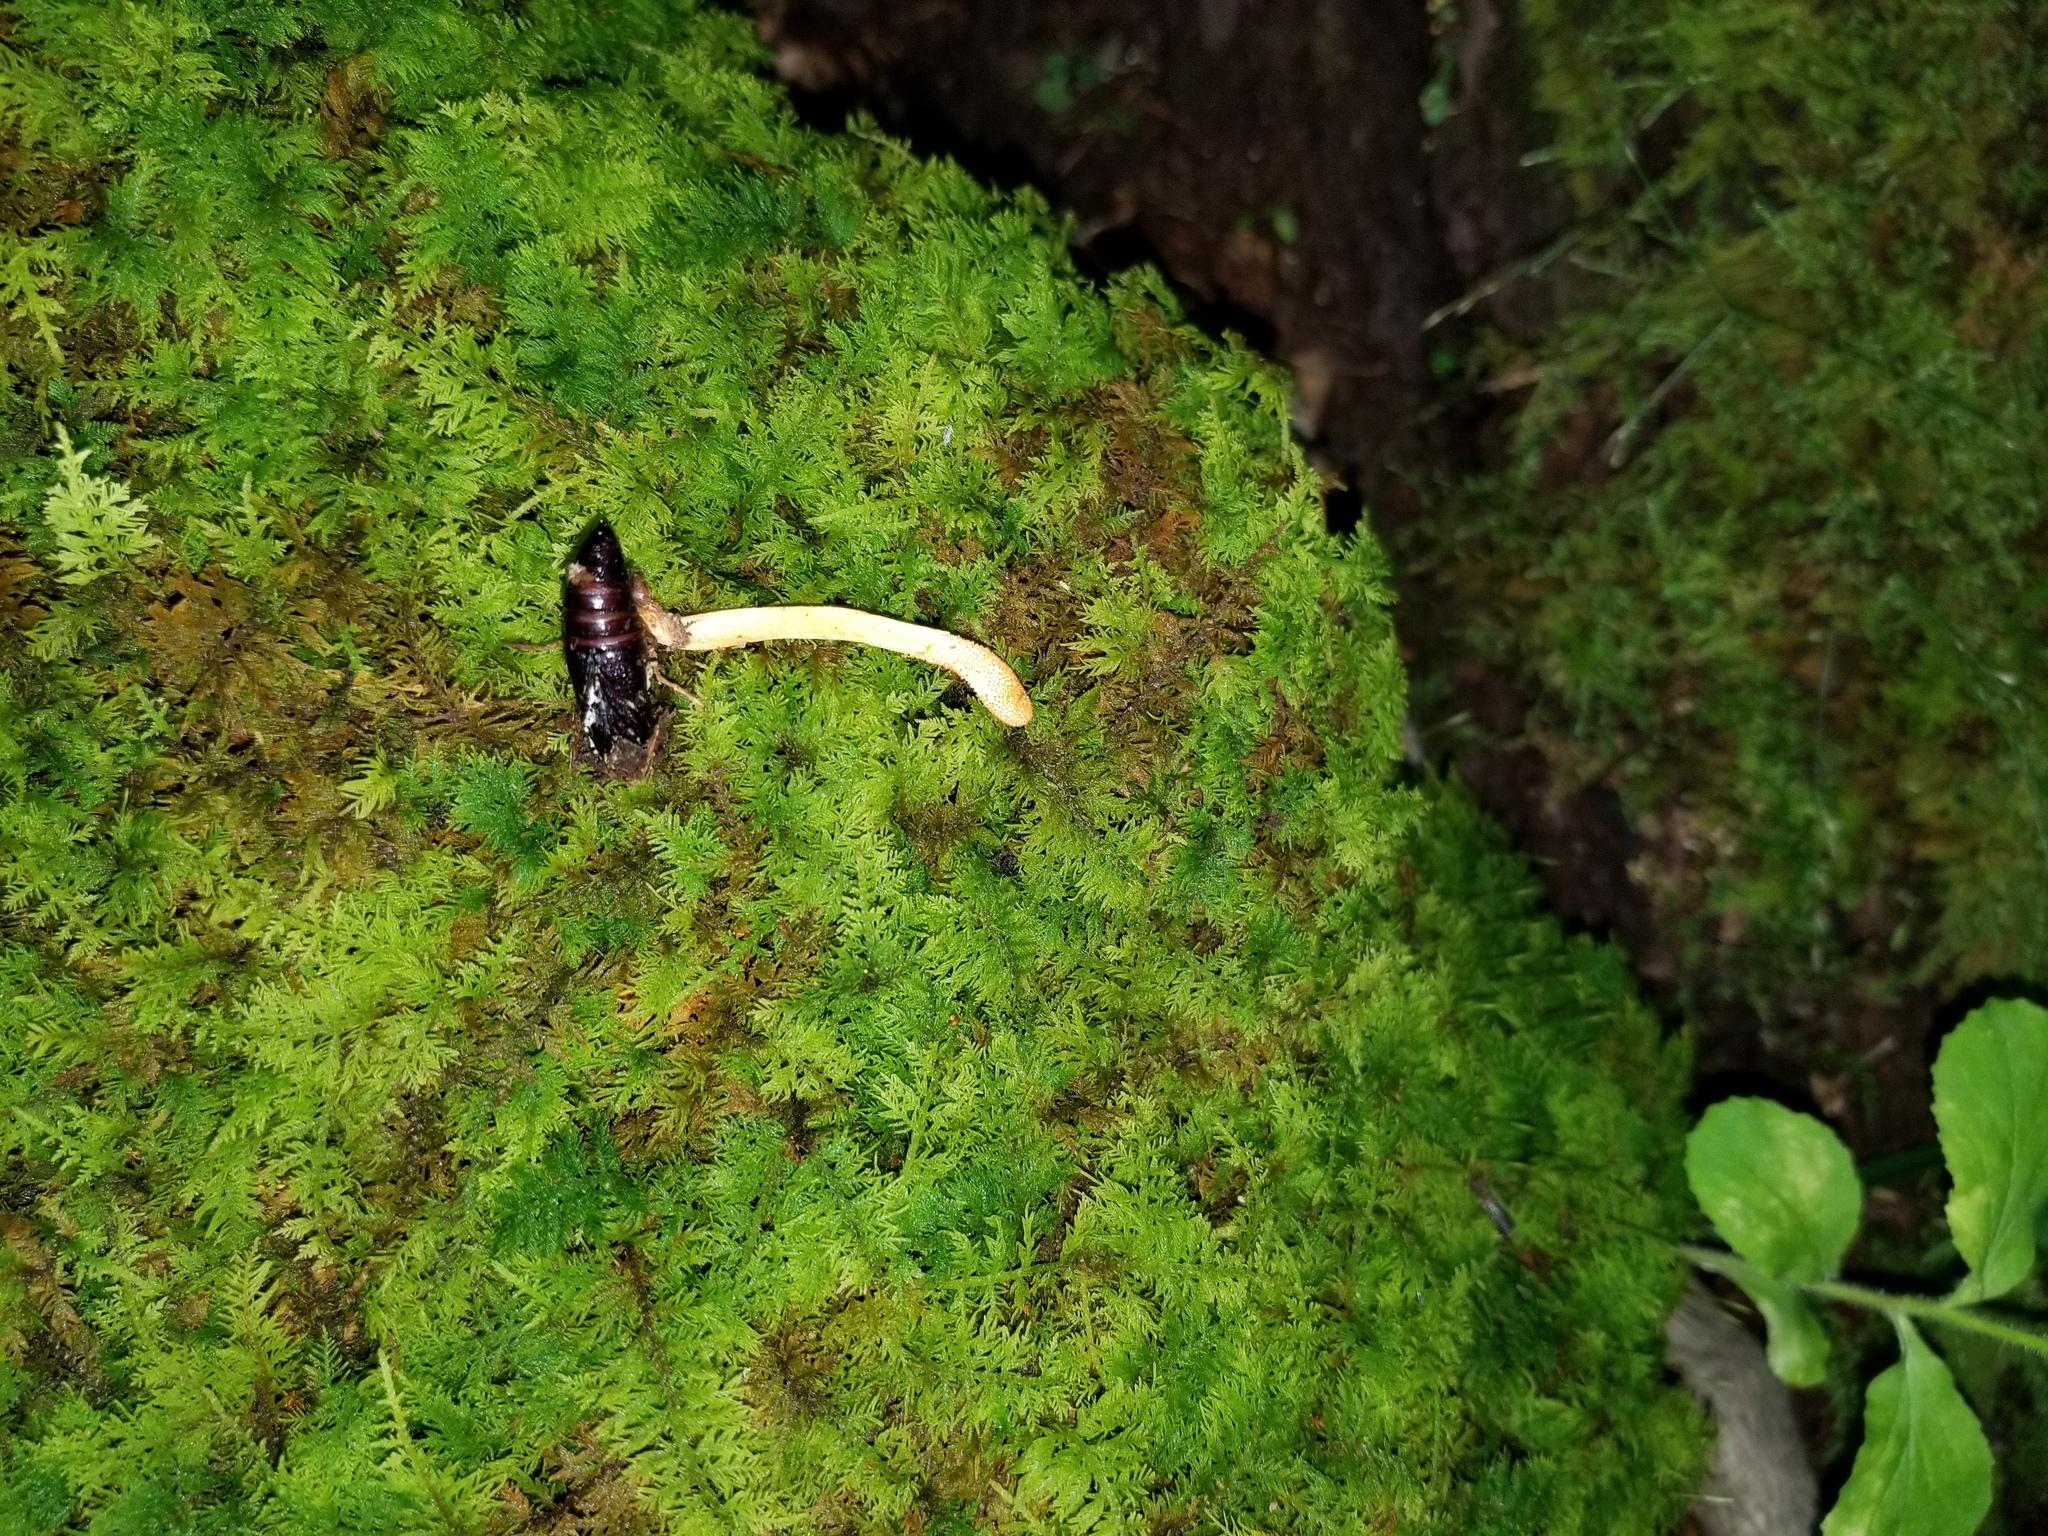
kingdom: Fungi
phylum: Ascomycota
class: Sordariomycetes
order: Hypocreales
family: Cordycipitaceae
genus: Cordyceps
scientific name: Cordyceps militaris
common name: Scarlet caterpillar fungus
